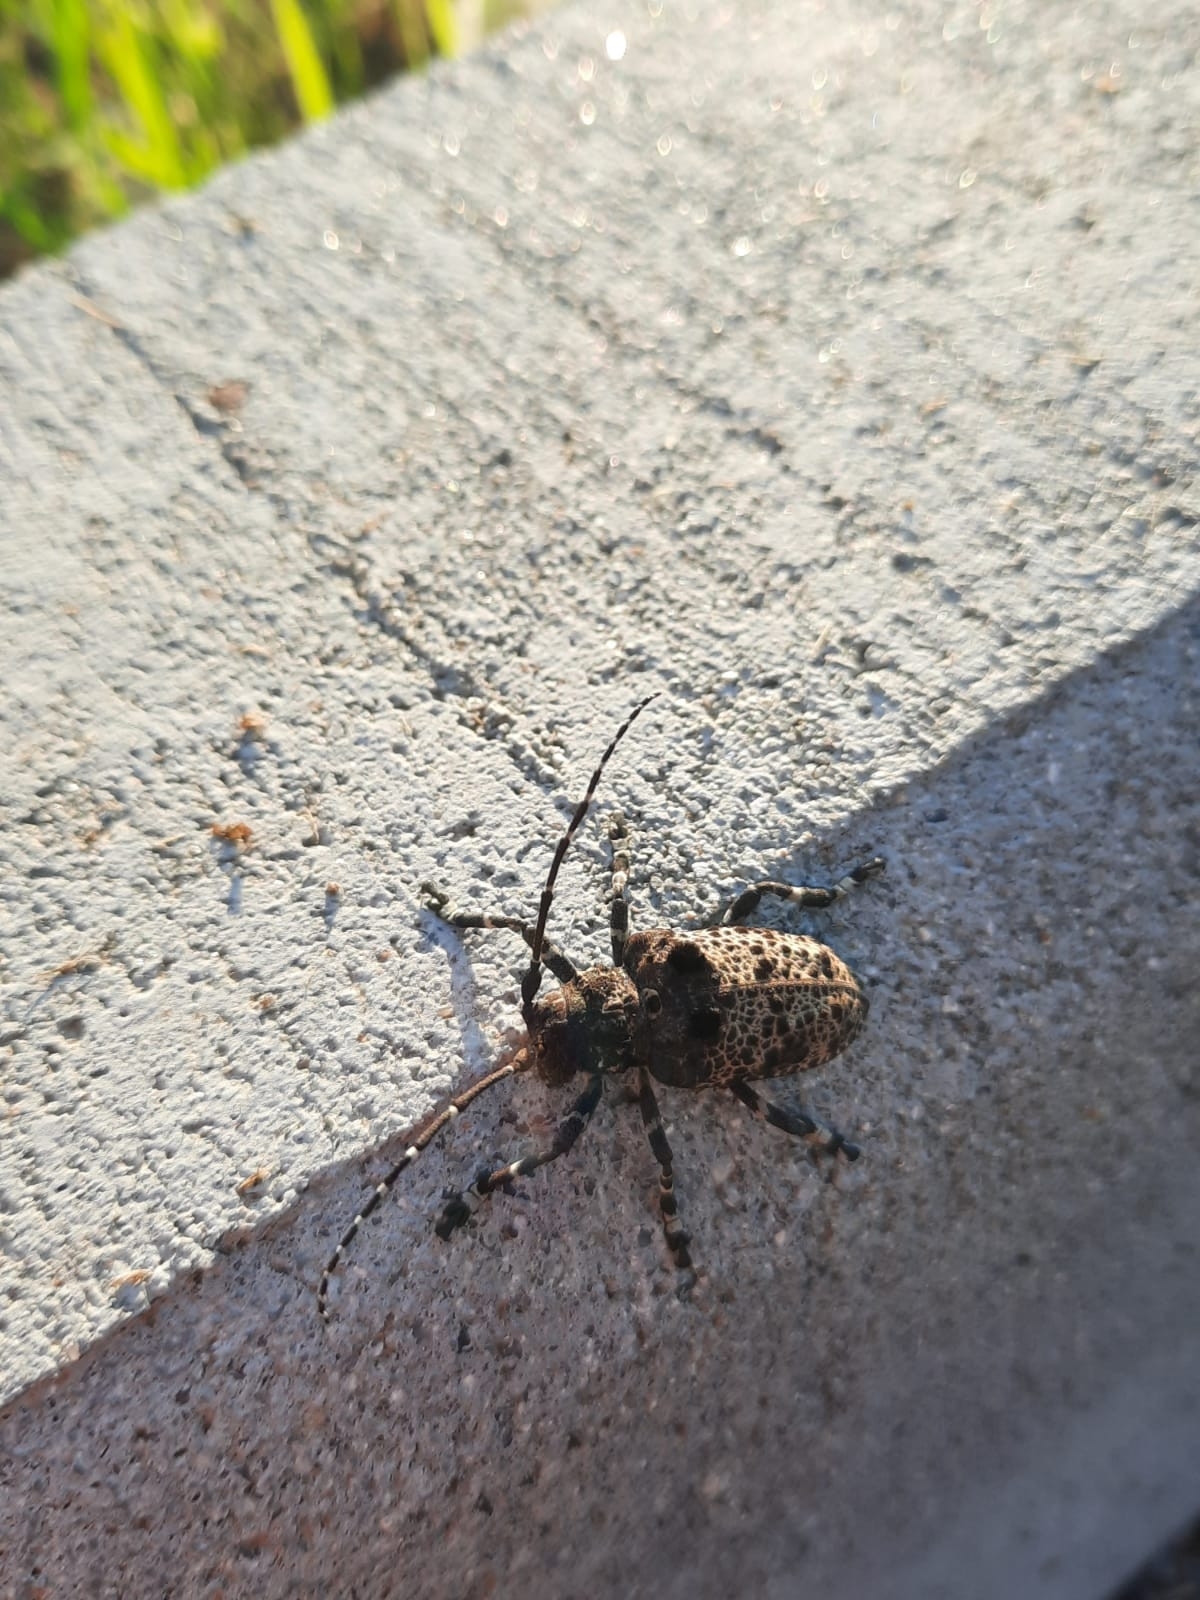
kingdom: Animalia
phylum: Arthropoda
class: Insecta
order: Coleoptera
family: Cerambycidae
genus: Moechotypa
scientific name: Moechotypa diphysis
